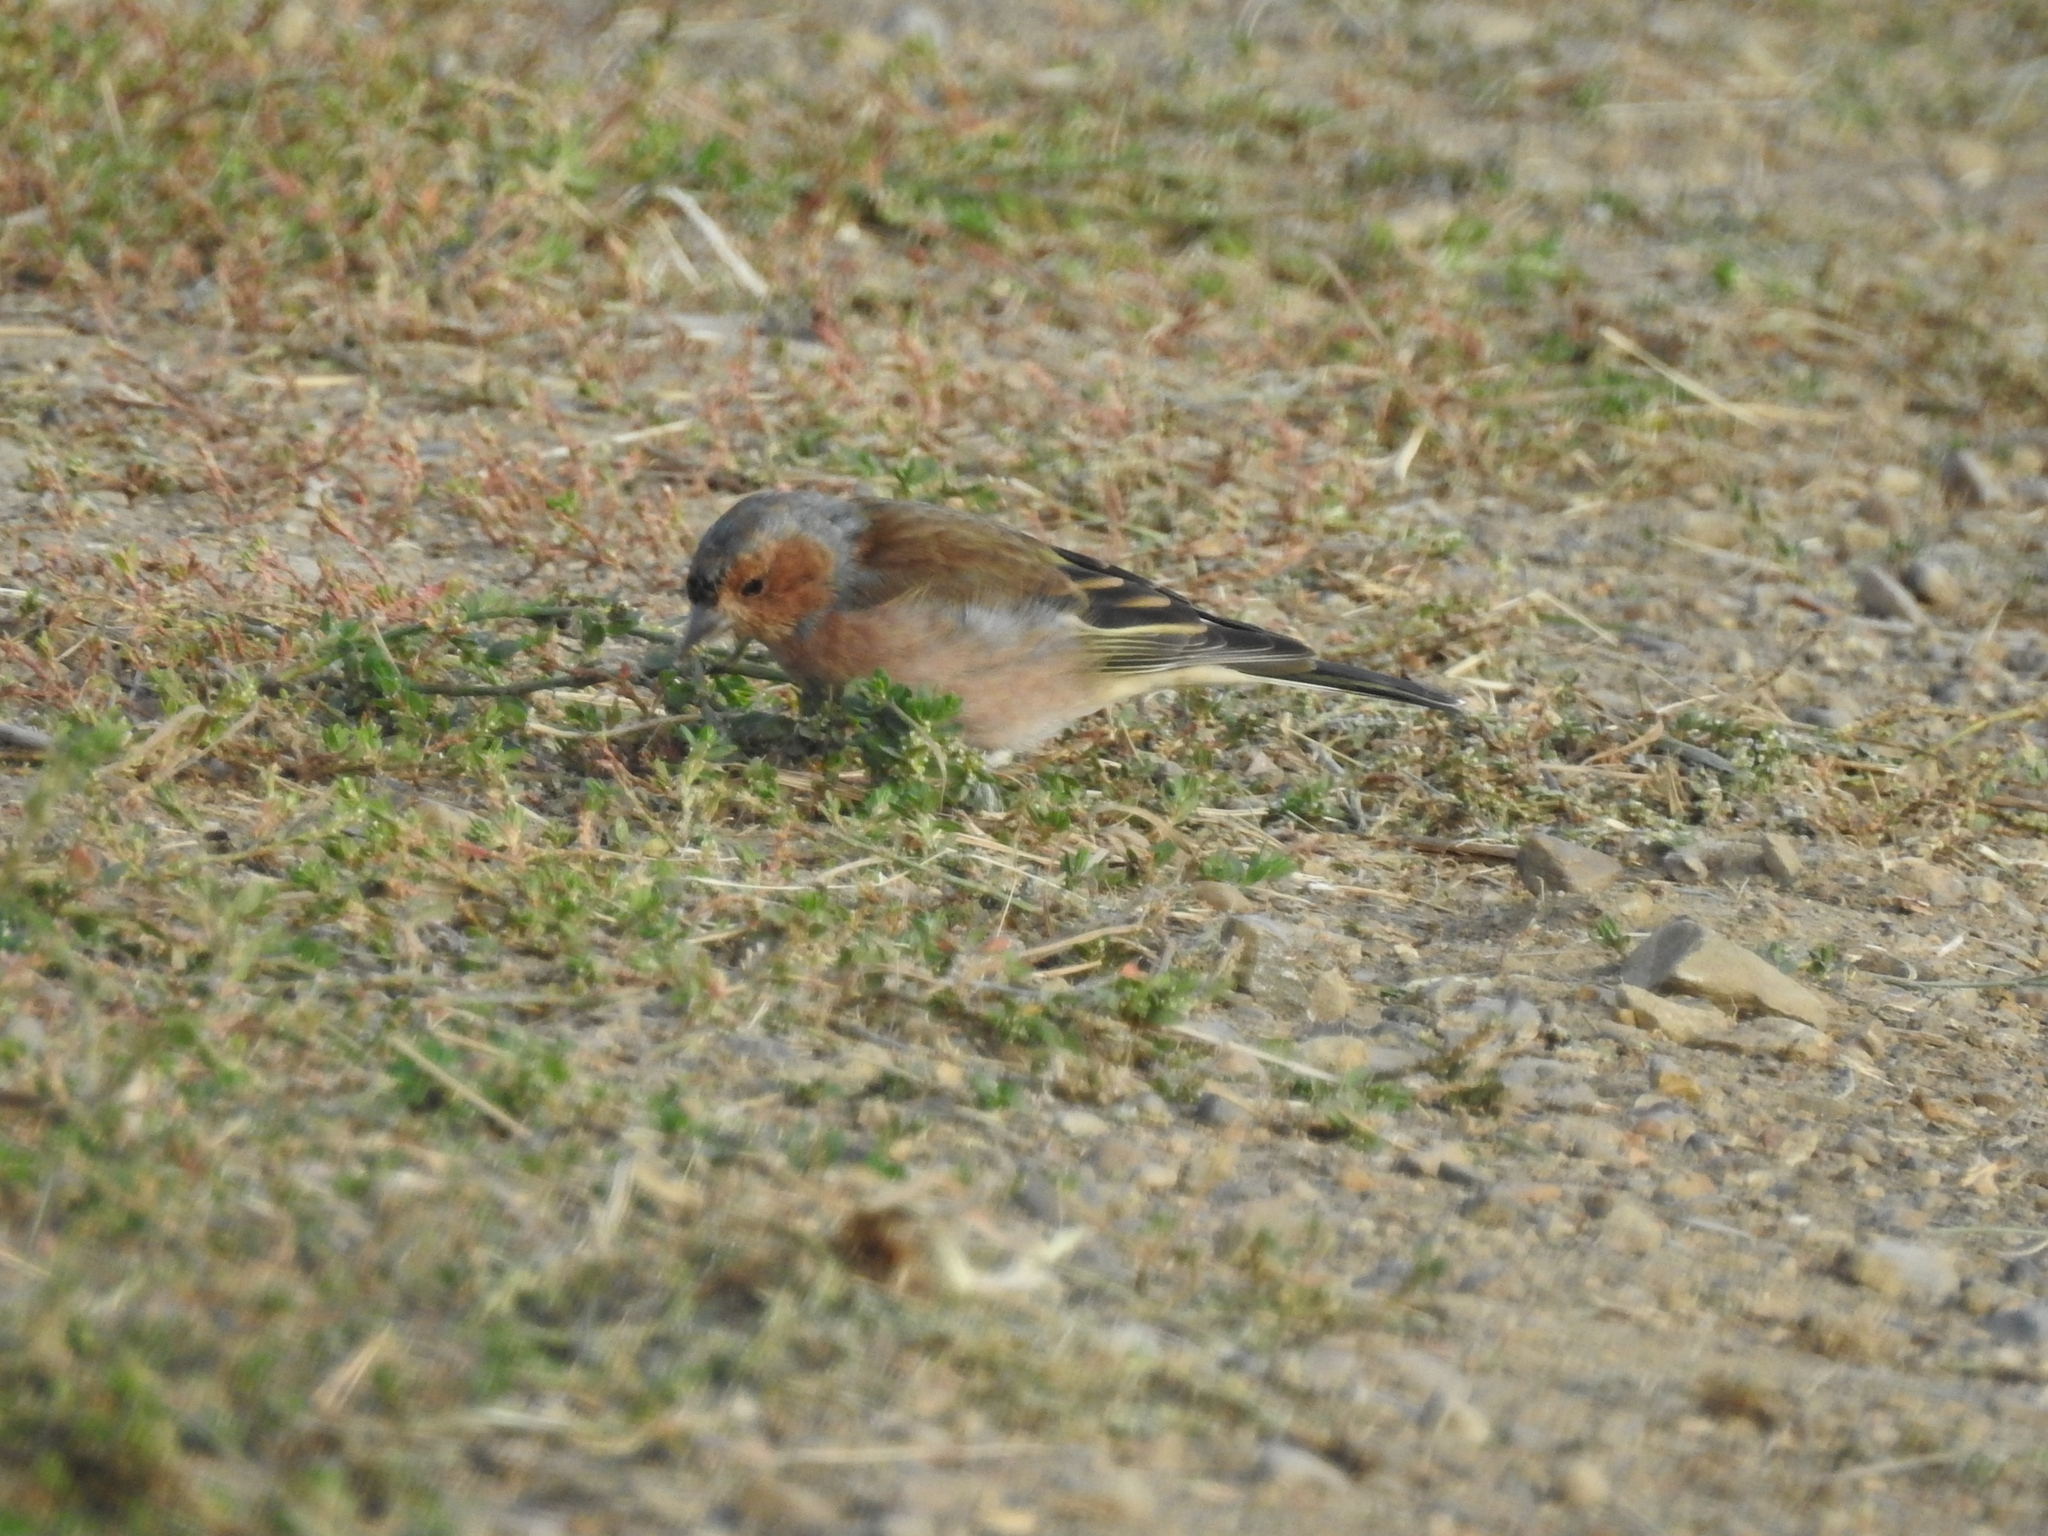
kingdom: Animalia
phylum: Chordata
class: Aves
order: Passeriformes
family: Fringillidae
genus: Fringilla
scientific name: Fringilla coelebs
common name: Common chaffinch
